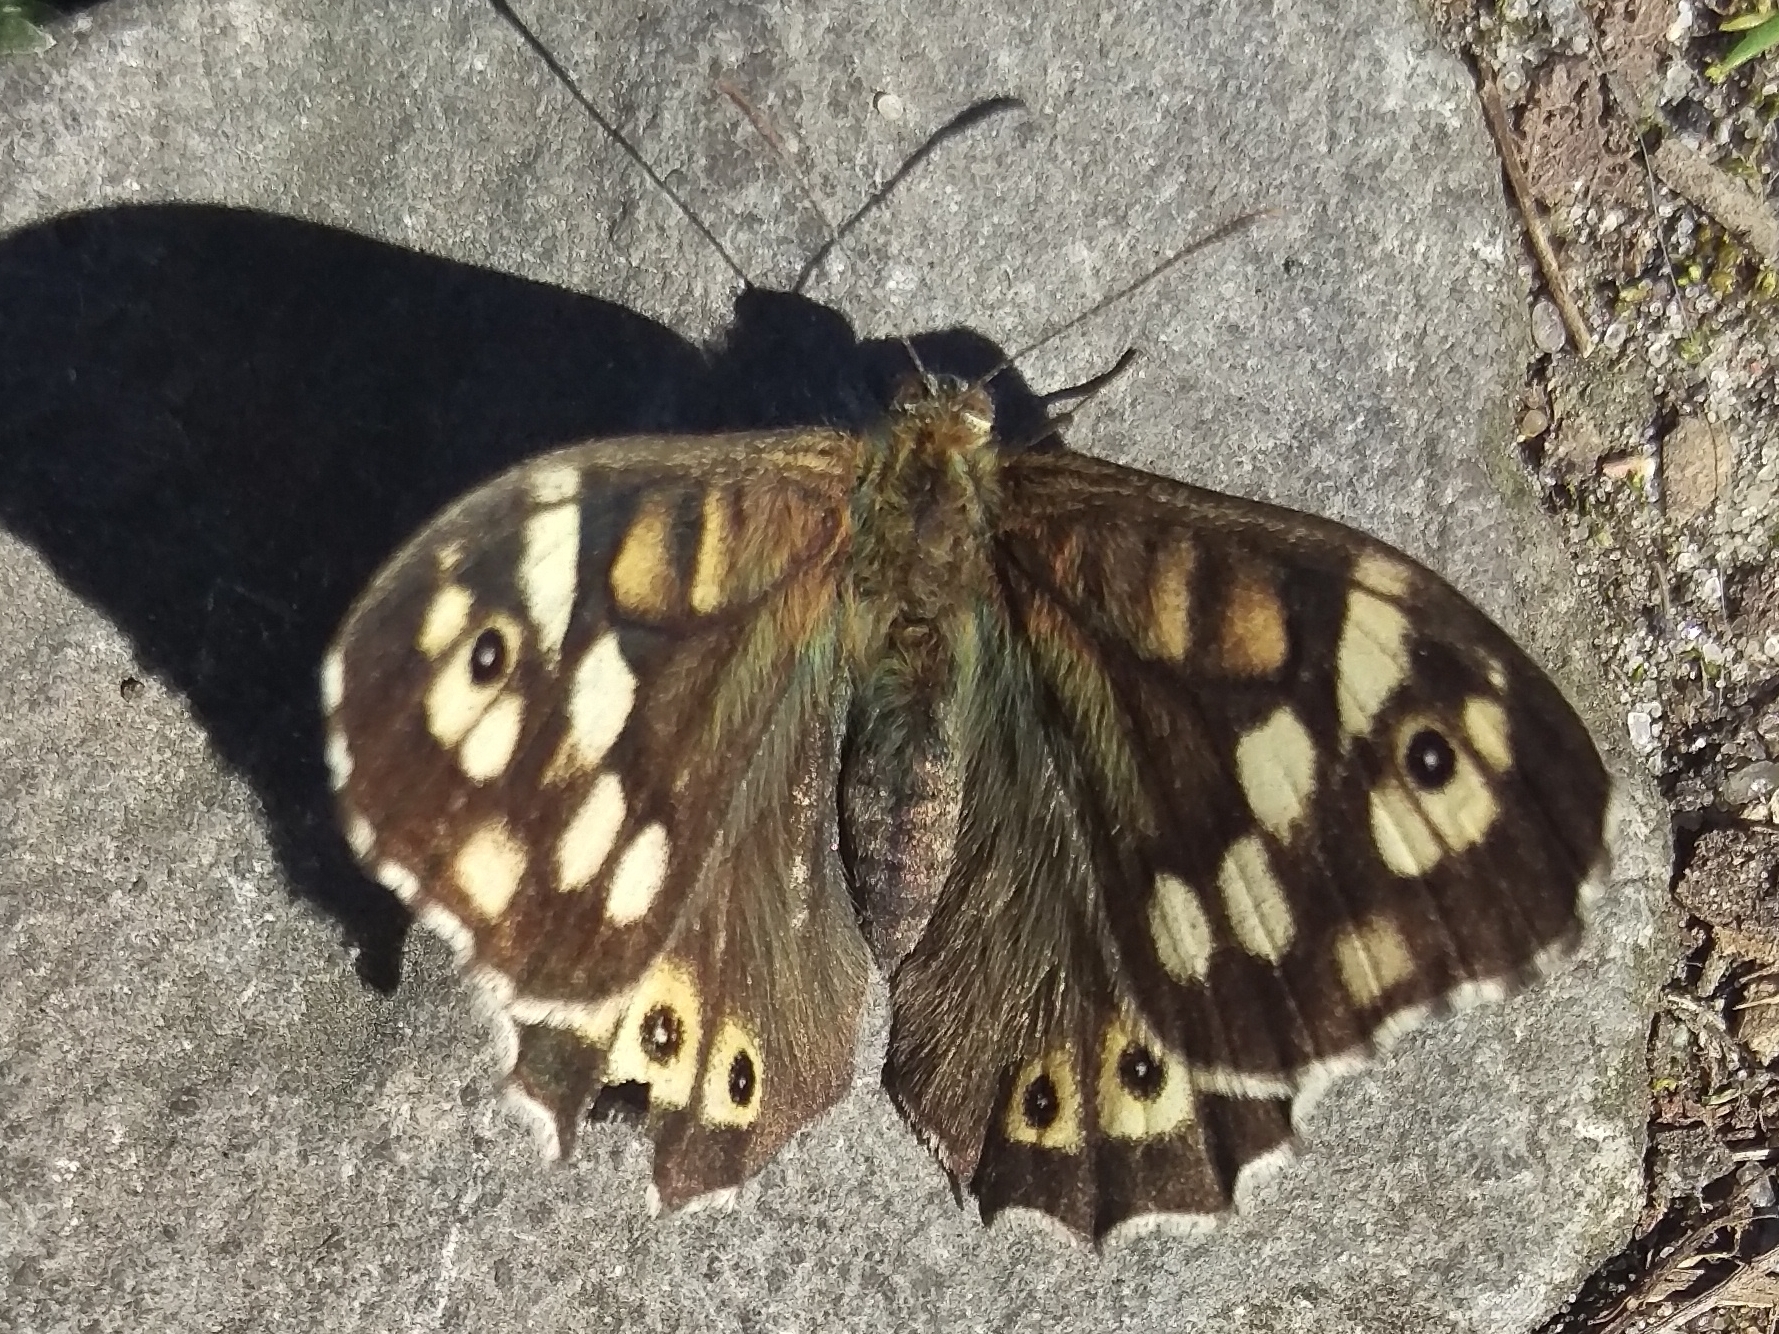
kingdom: Animalia
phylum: Arthropoda
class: Insecta
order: Lepidoptera
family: Nymphalidae
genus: Pararge
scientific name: Pararge aegeria
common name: Speckled wood
